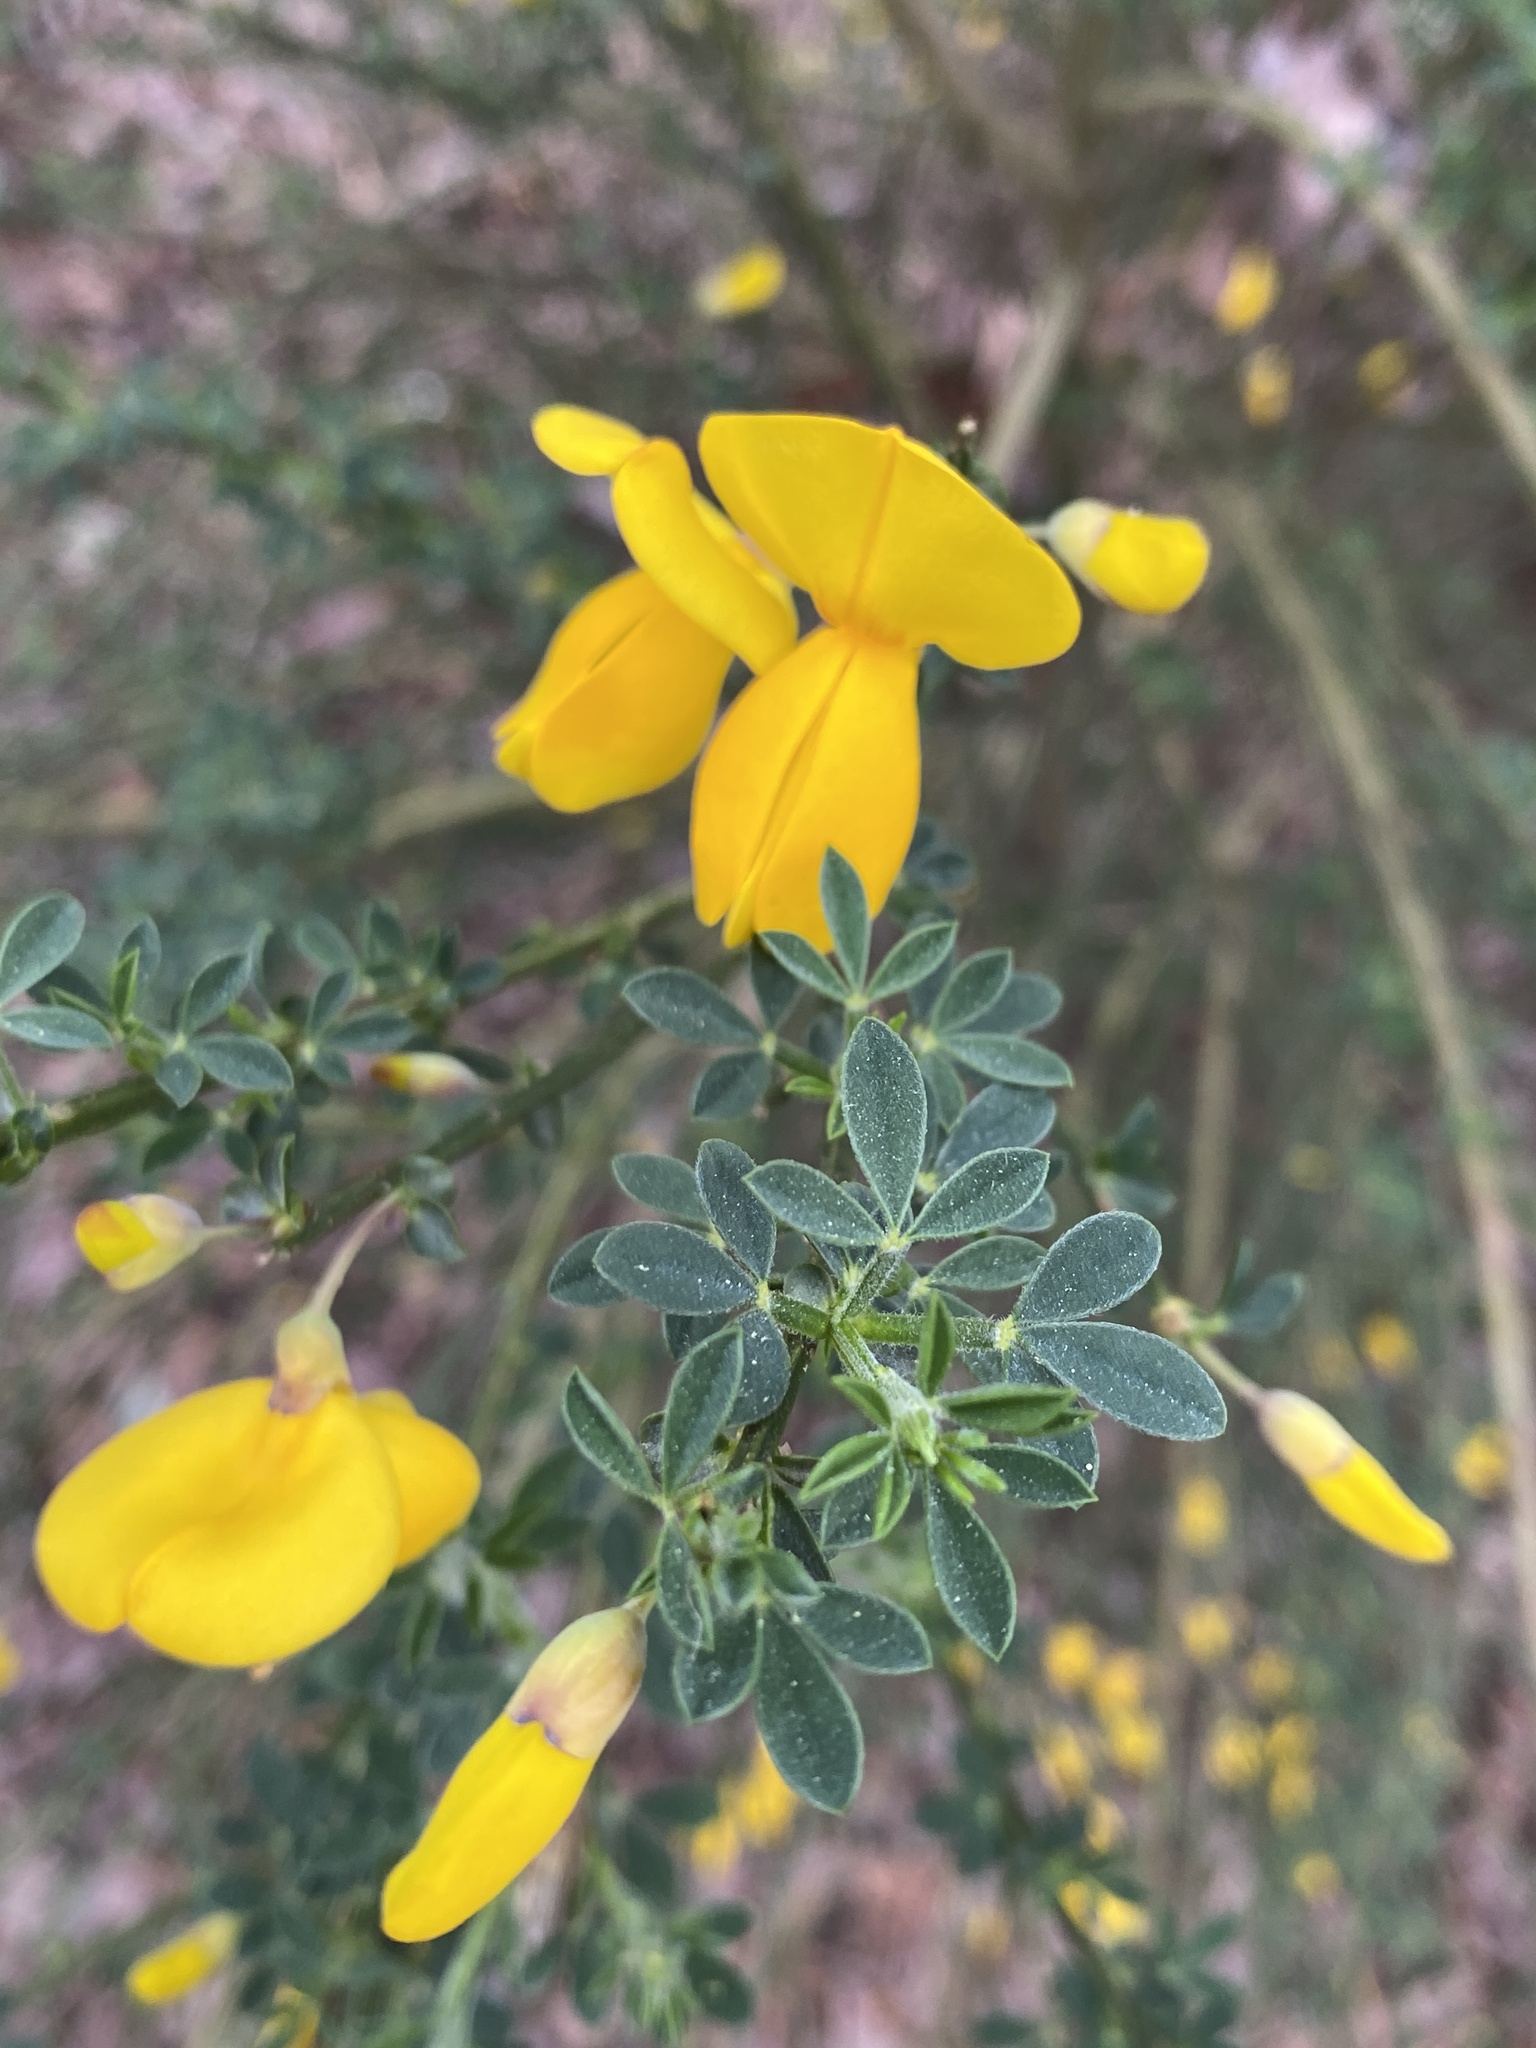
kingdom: Plantae
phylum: Tracheophyta
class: Magnoliopsida
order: Fabales
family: Fabaceae
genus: Cytisus
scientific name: Cytisus scoparius
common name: Scotch broom
